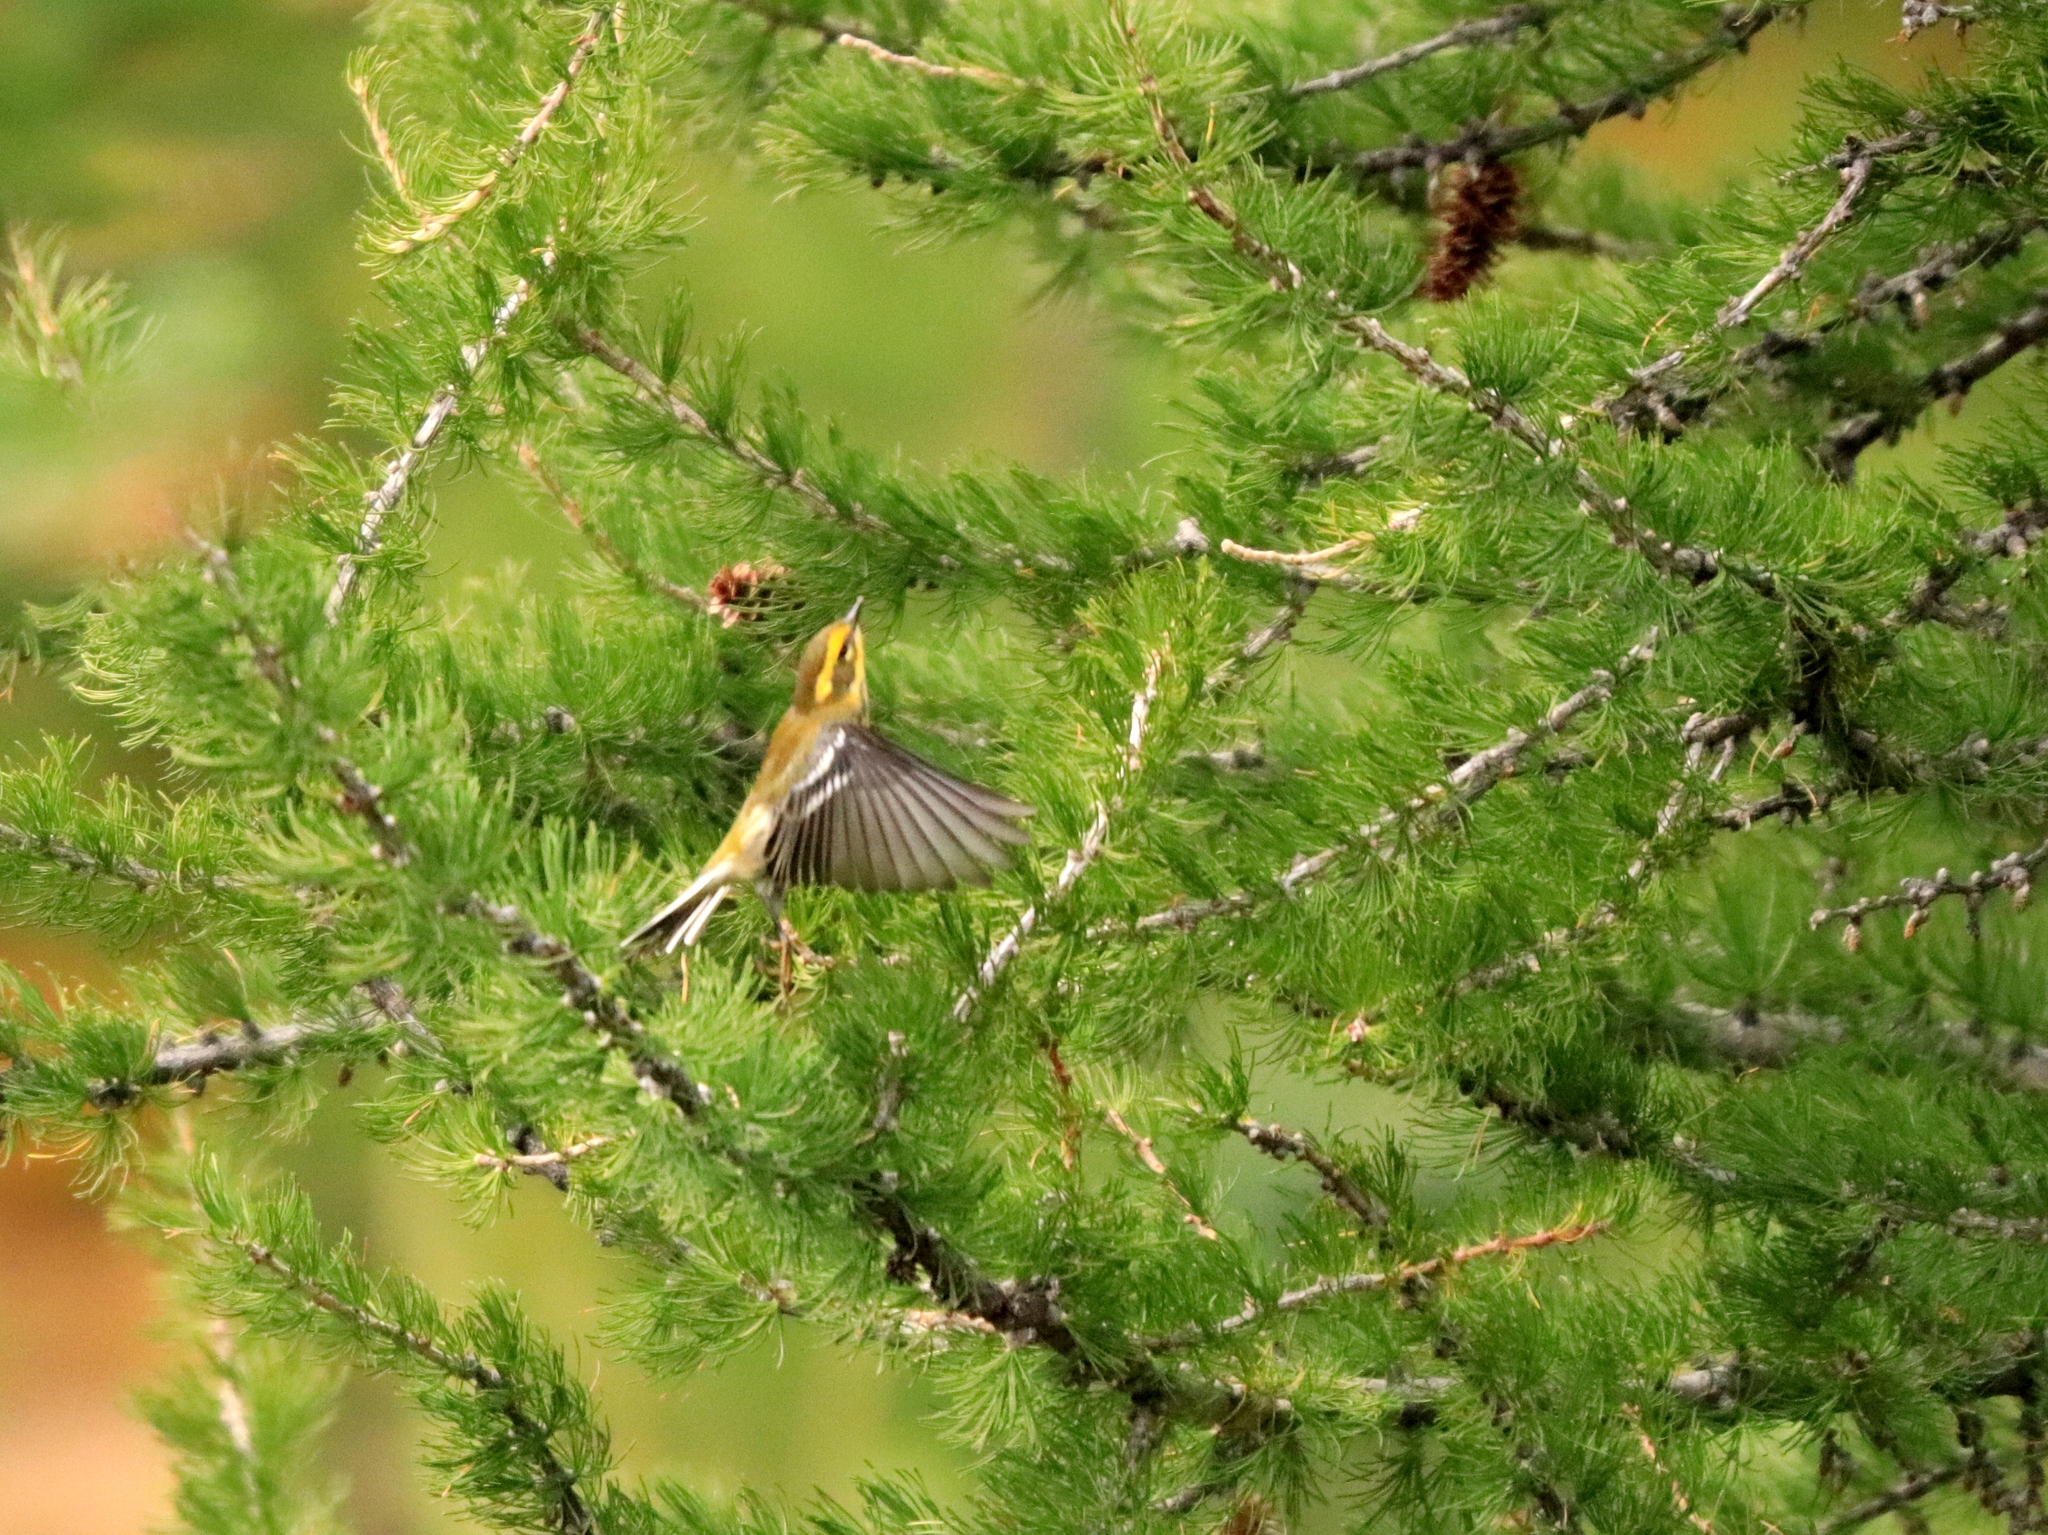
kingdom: Animalia
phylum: Chordata
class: Aves
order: Passeriformes
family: Parulidae
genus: Setophaga
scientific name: Setophaga townsendi
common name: Townsend's warbler
